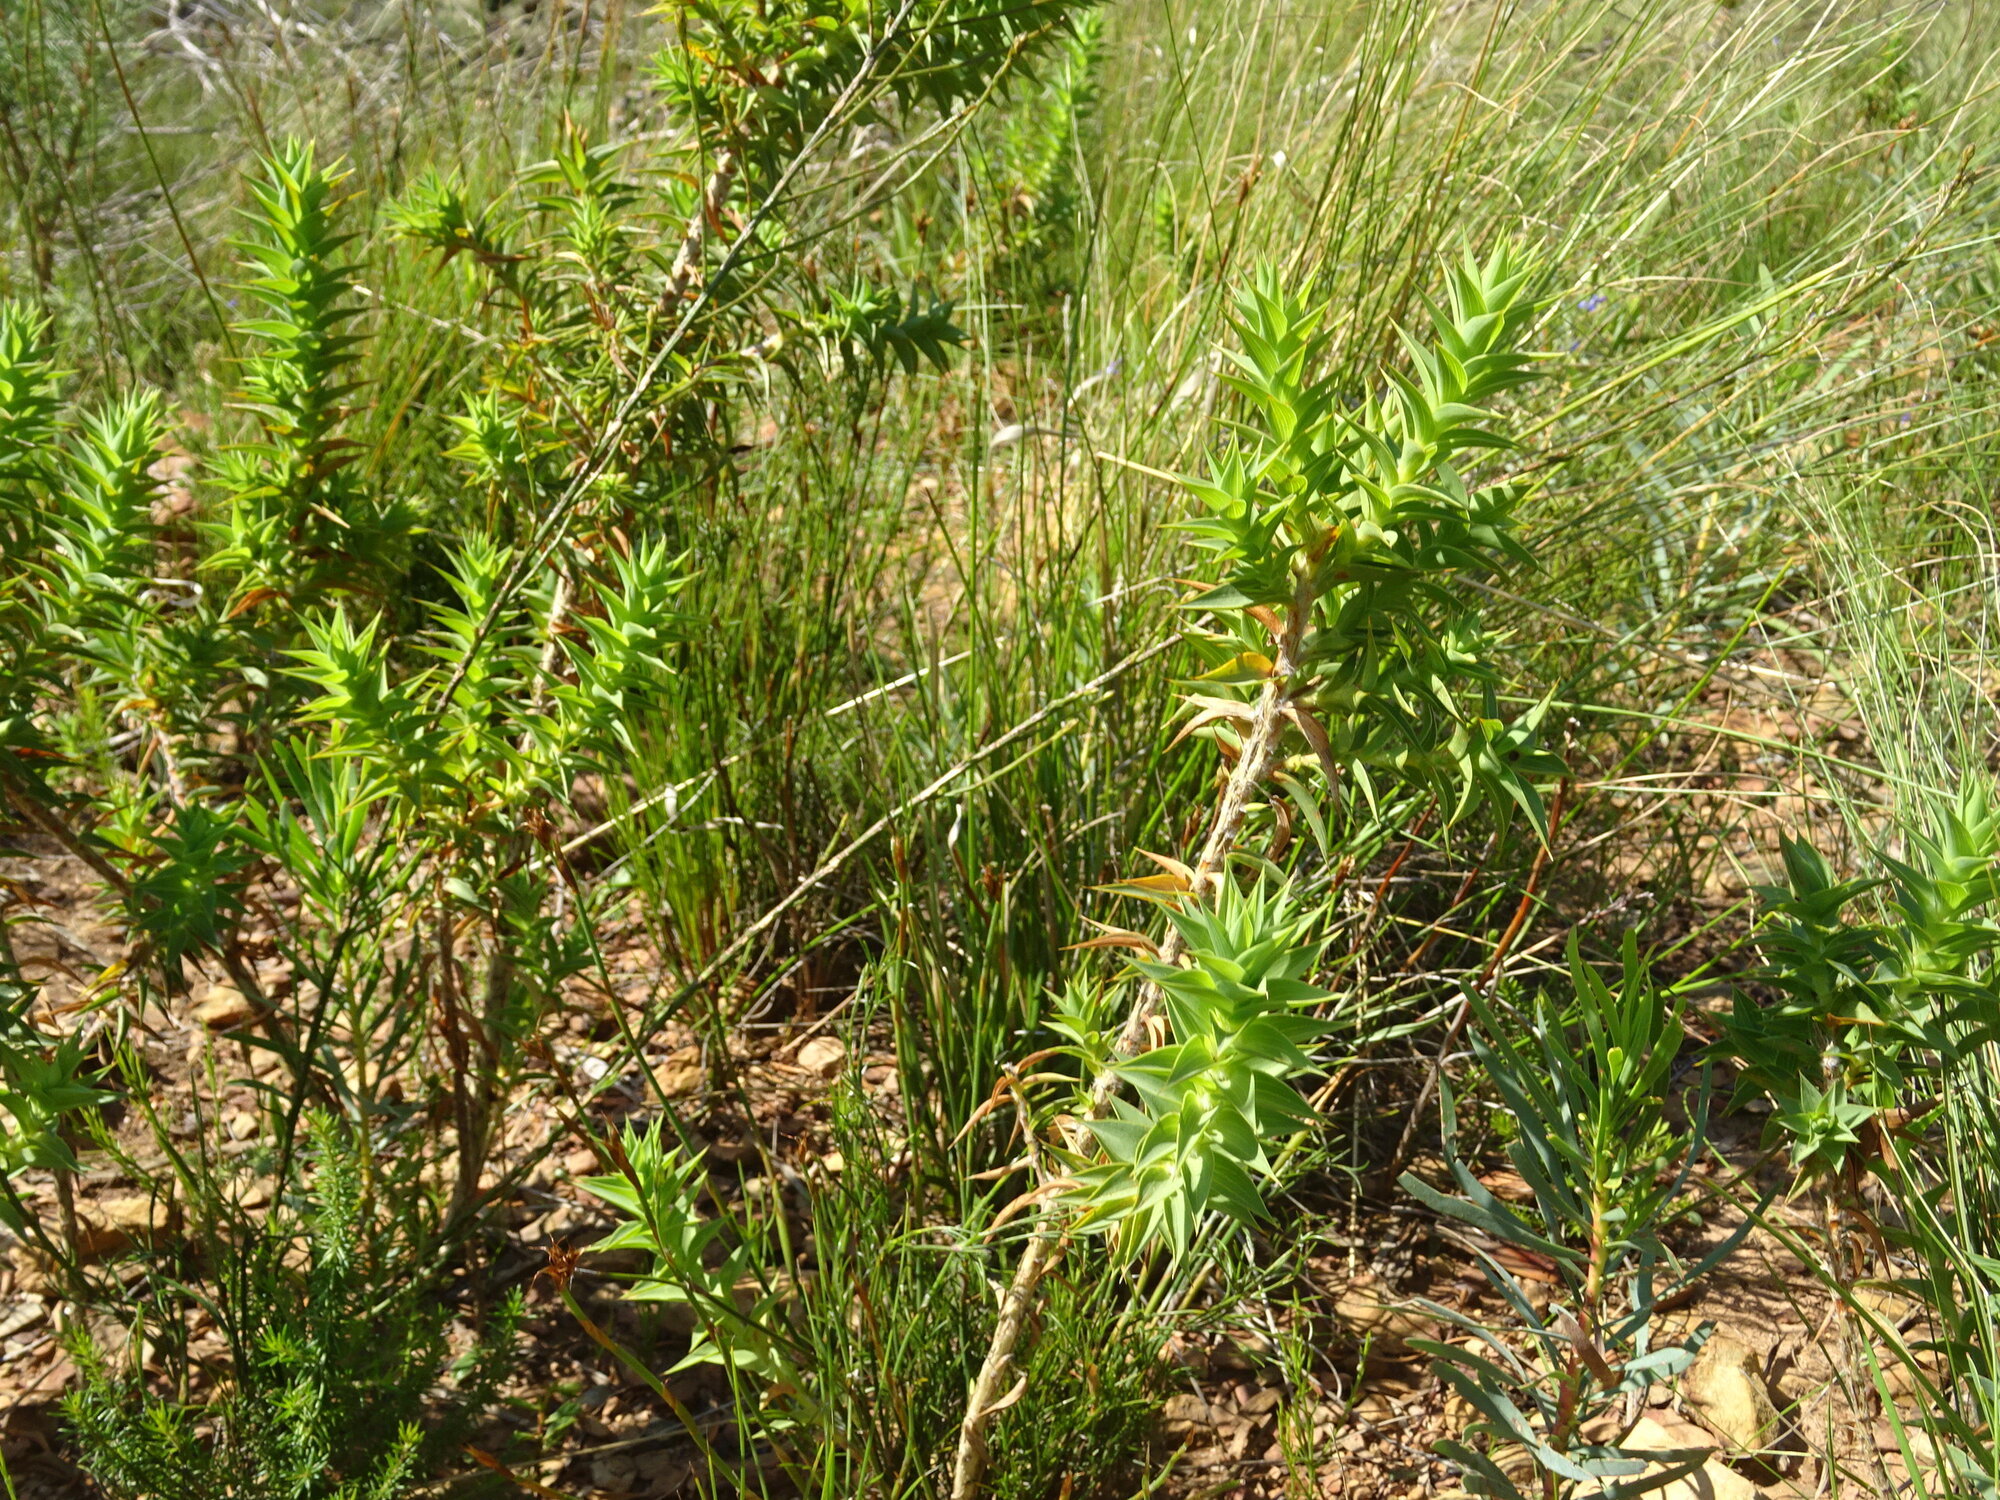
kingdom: Plantae
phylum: Tracheophyta
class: Magnoliopsida
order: Fabales
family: Fabaceae
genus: Aspalathus
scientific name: Aspalathus cordata
